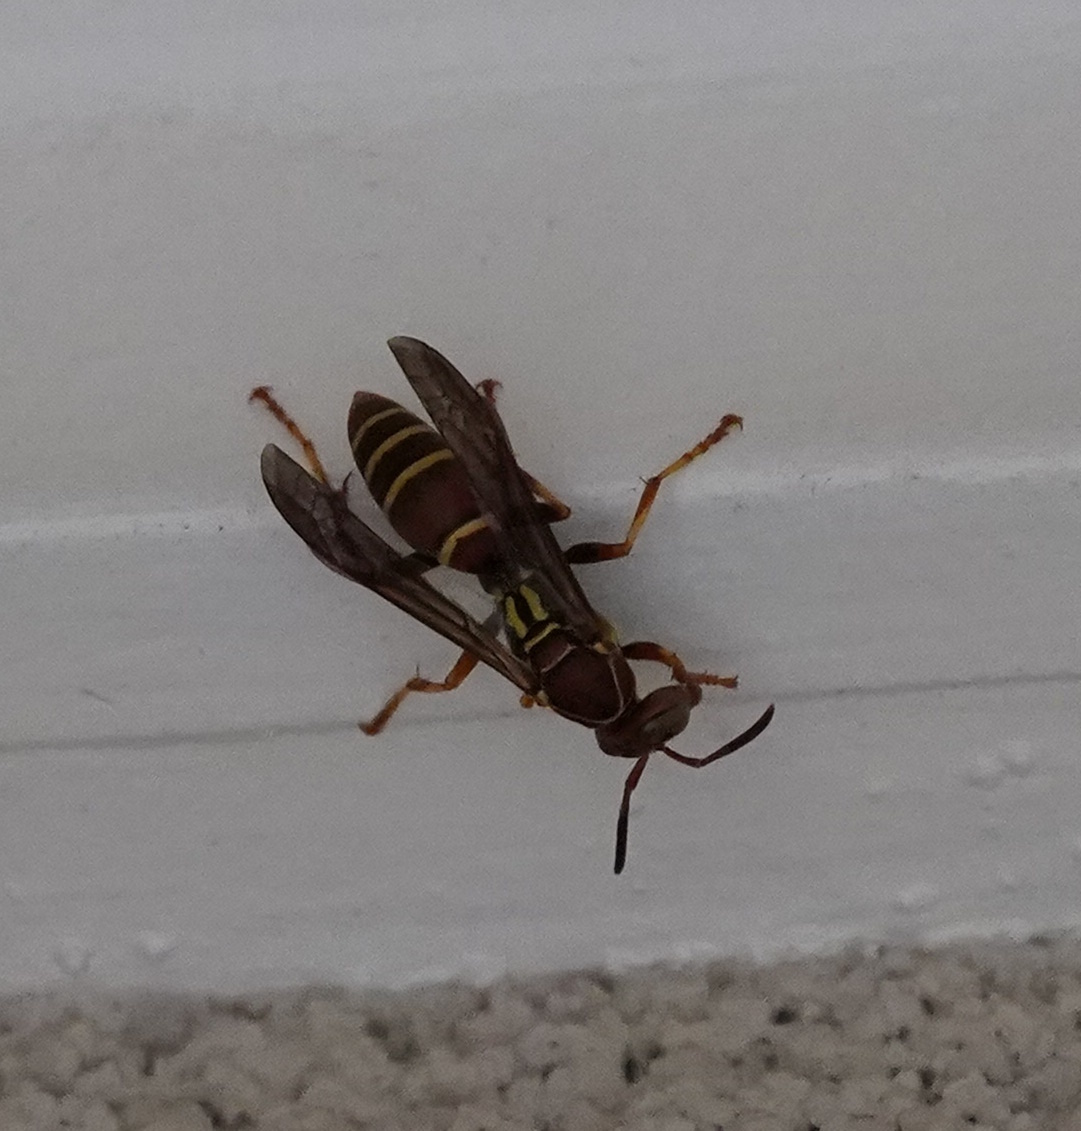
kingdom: Animalia
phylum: Arthropoda
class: Insecta
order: Hymenoptera
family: Eumenidae
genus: Polistes
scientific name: Polistes dorsalis
